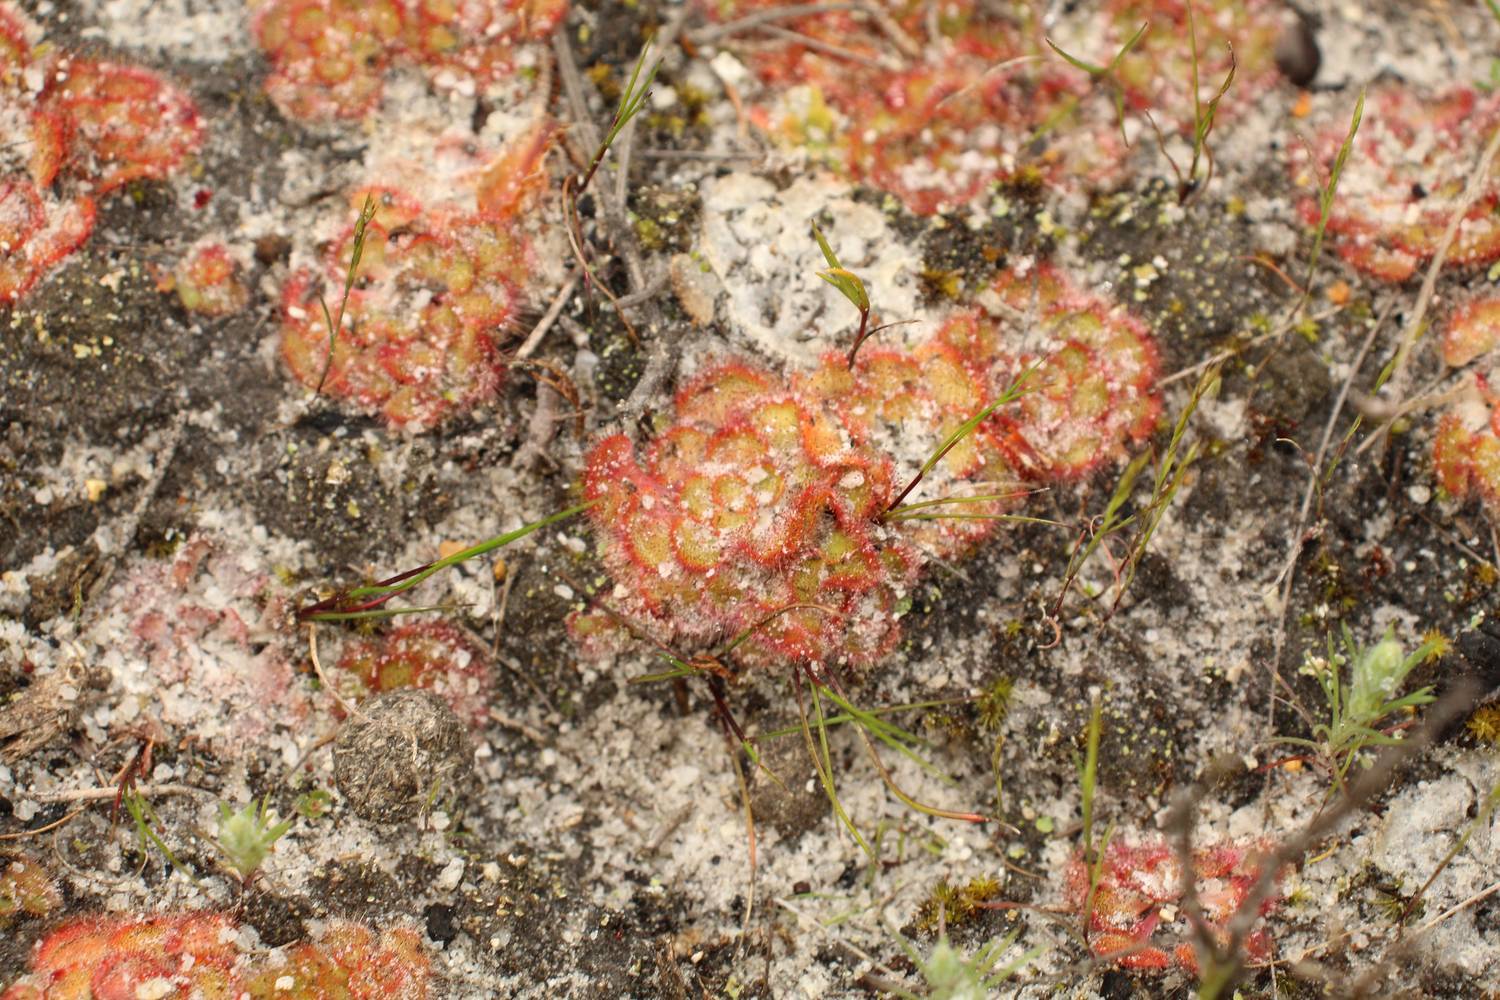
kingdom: Plantae
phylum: Tracheophyta
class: Magnoliopsida
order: Caryophyllales
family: Droseraceae
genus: Drosera
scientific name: Drosera zonaria
